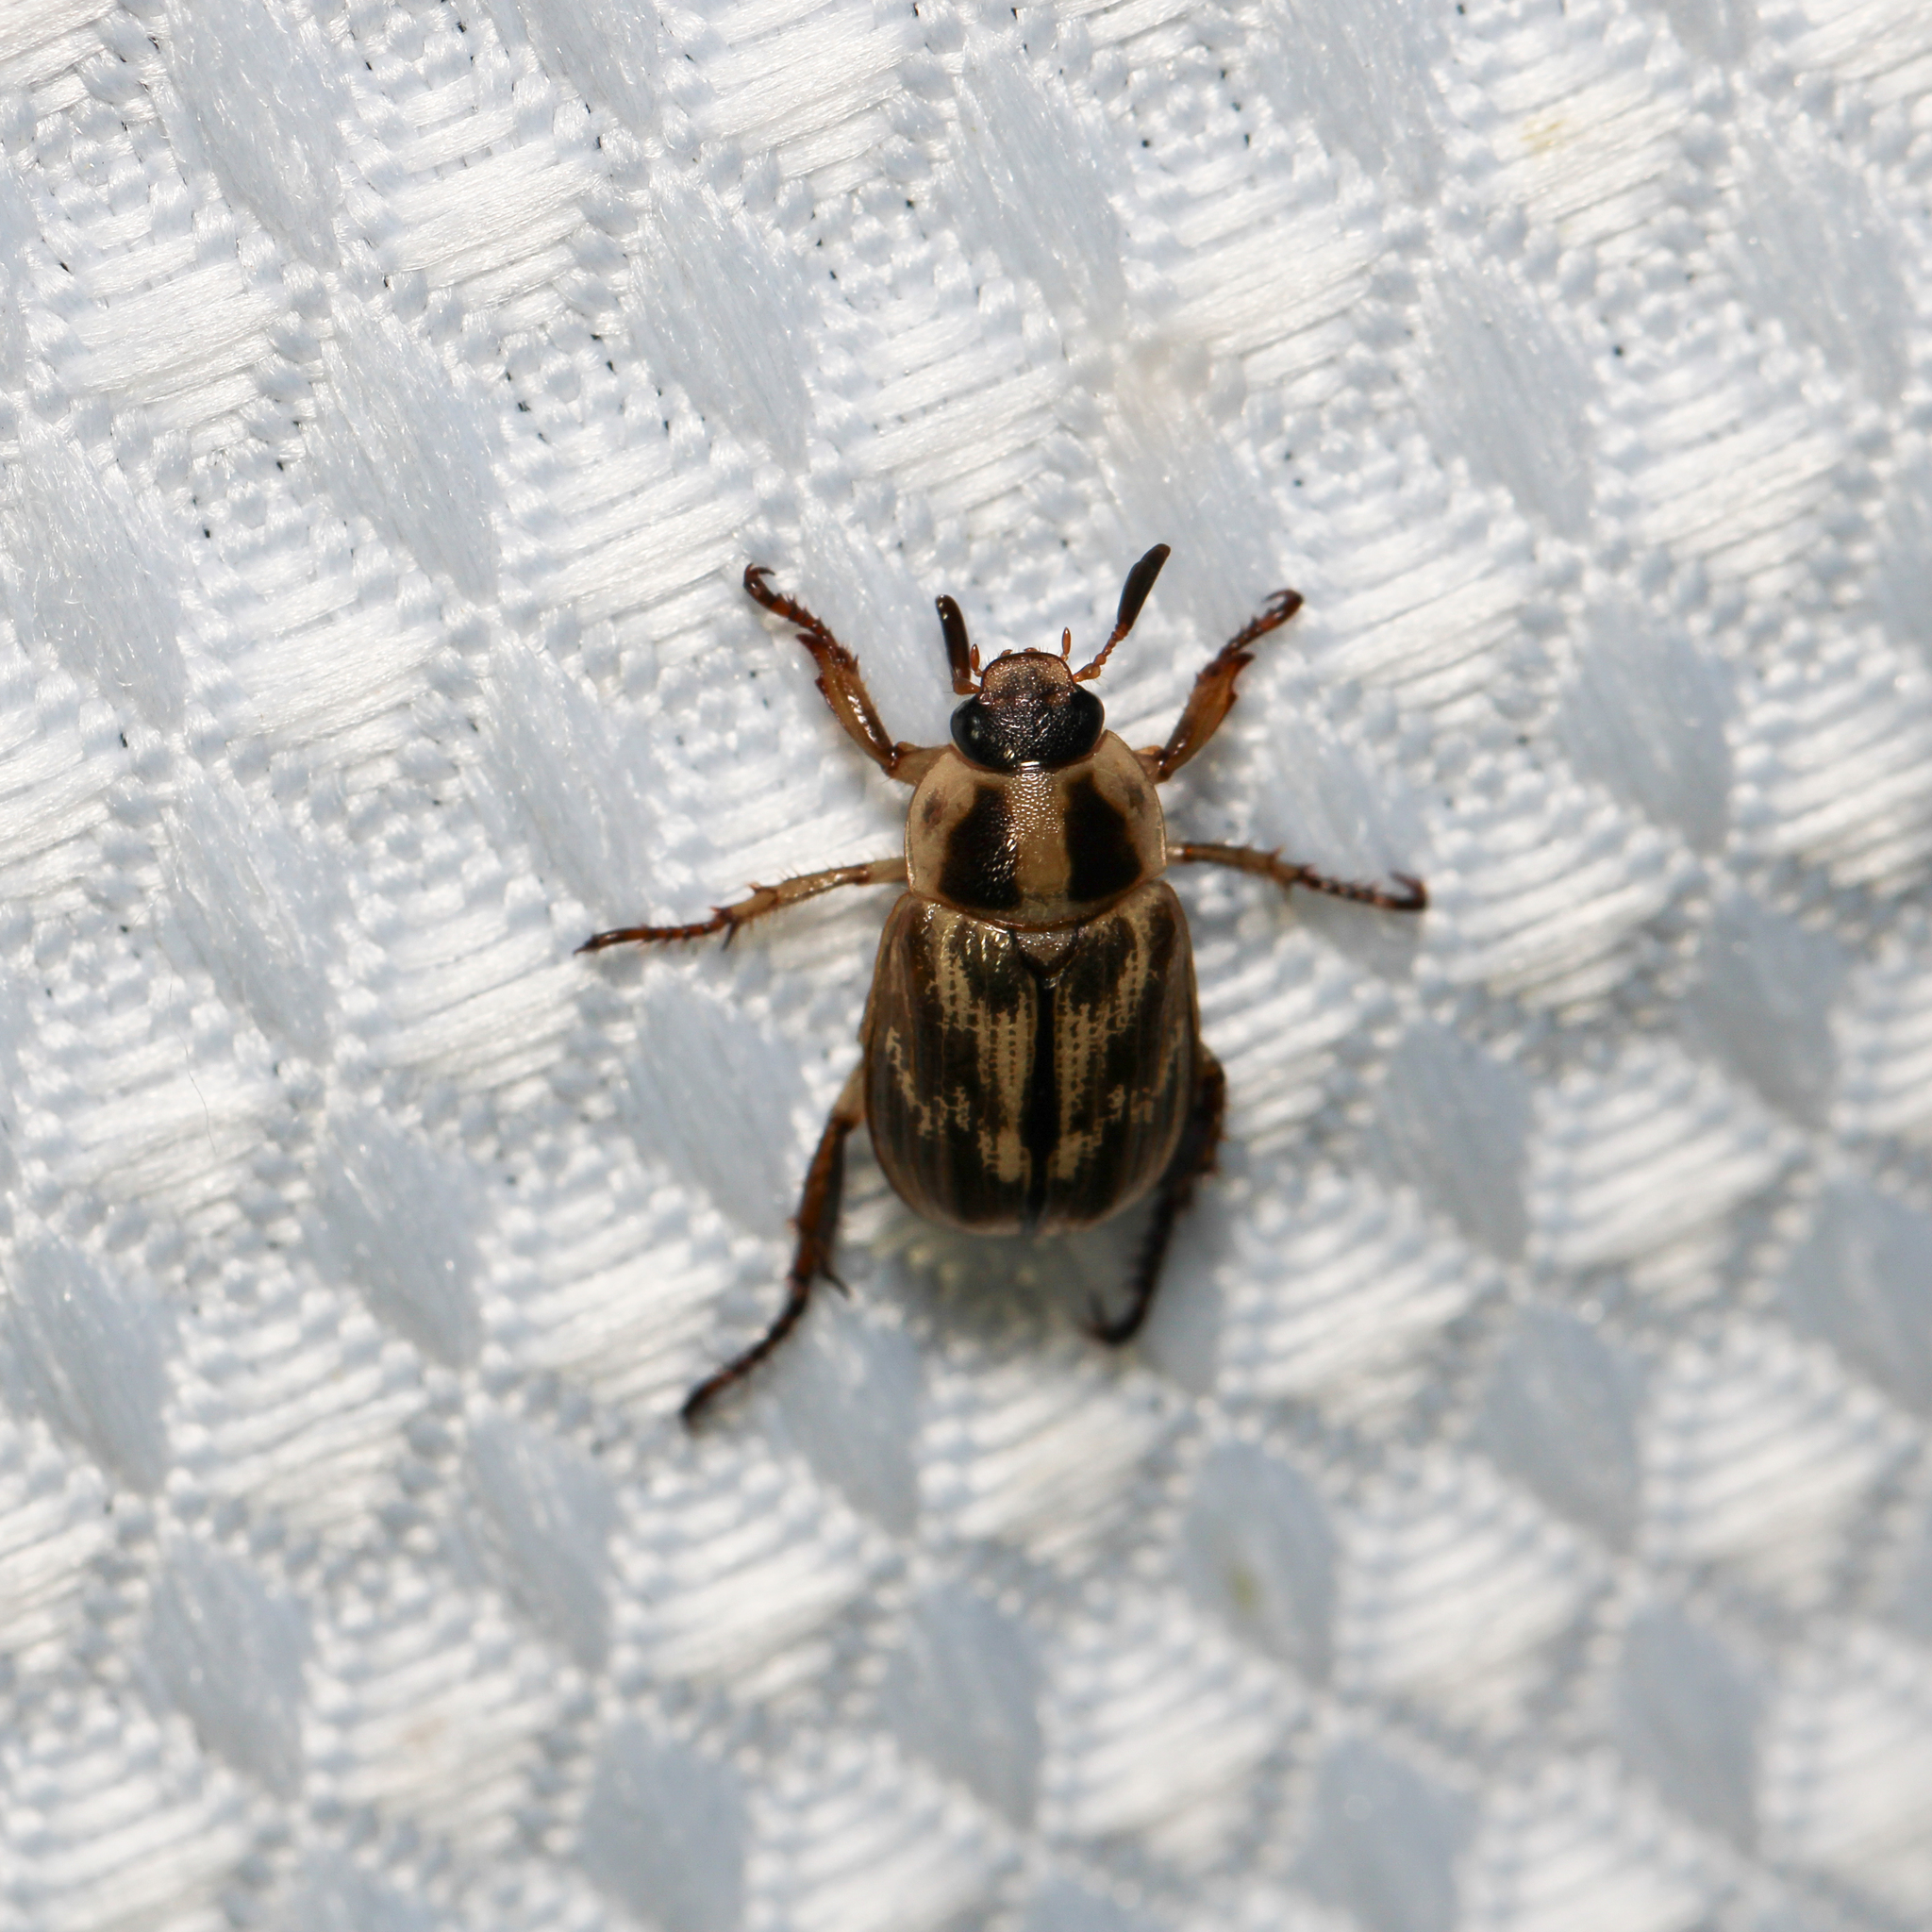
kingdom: Animalia
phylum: Arthropoda
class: Insecta
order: Coleoptera
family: Scarabaeidae
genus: Exomala
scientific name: Exomala orientalis
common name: Oriental beetle
